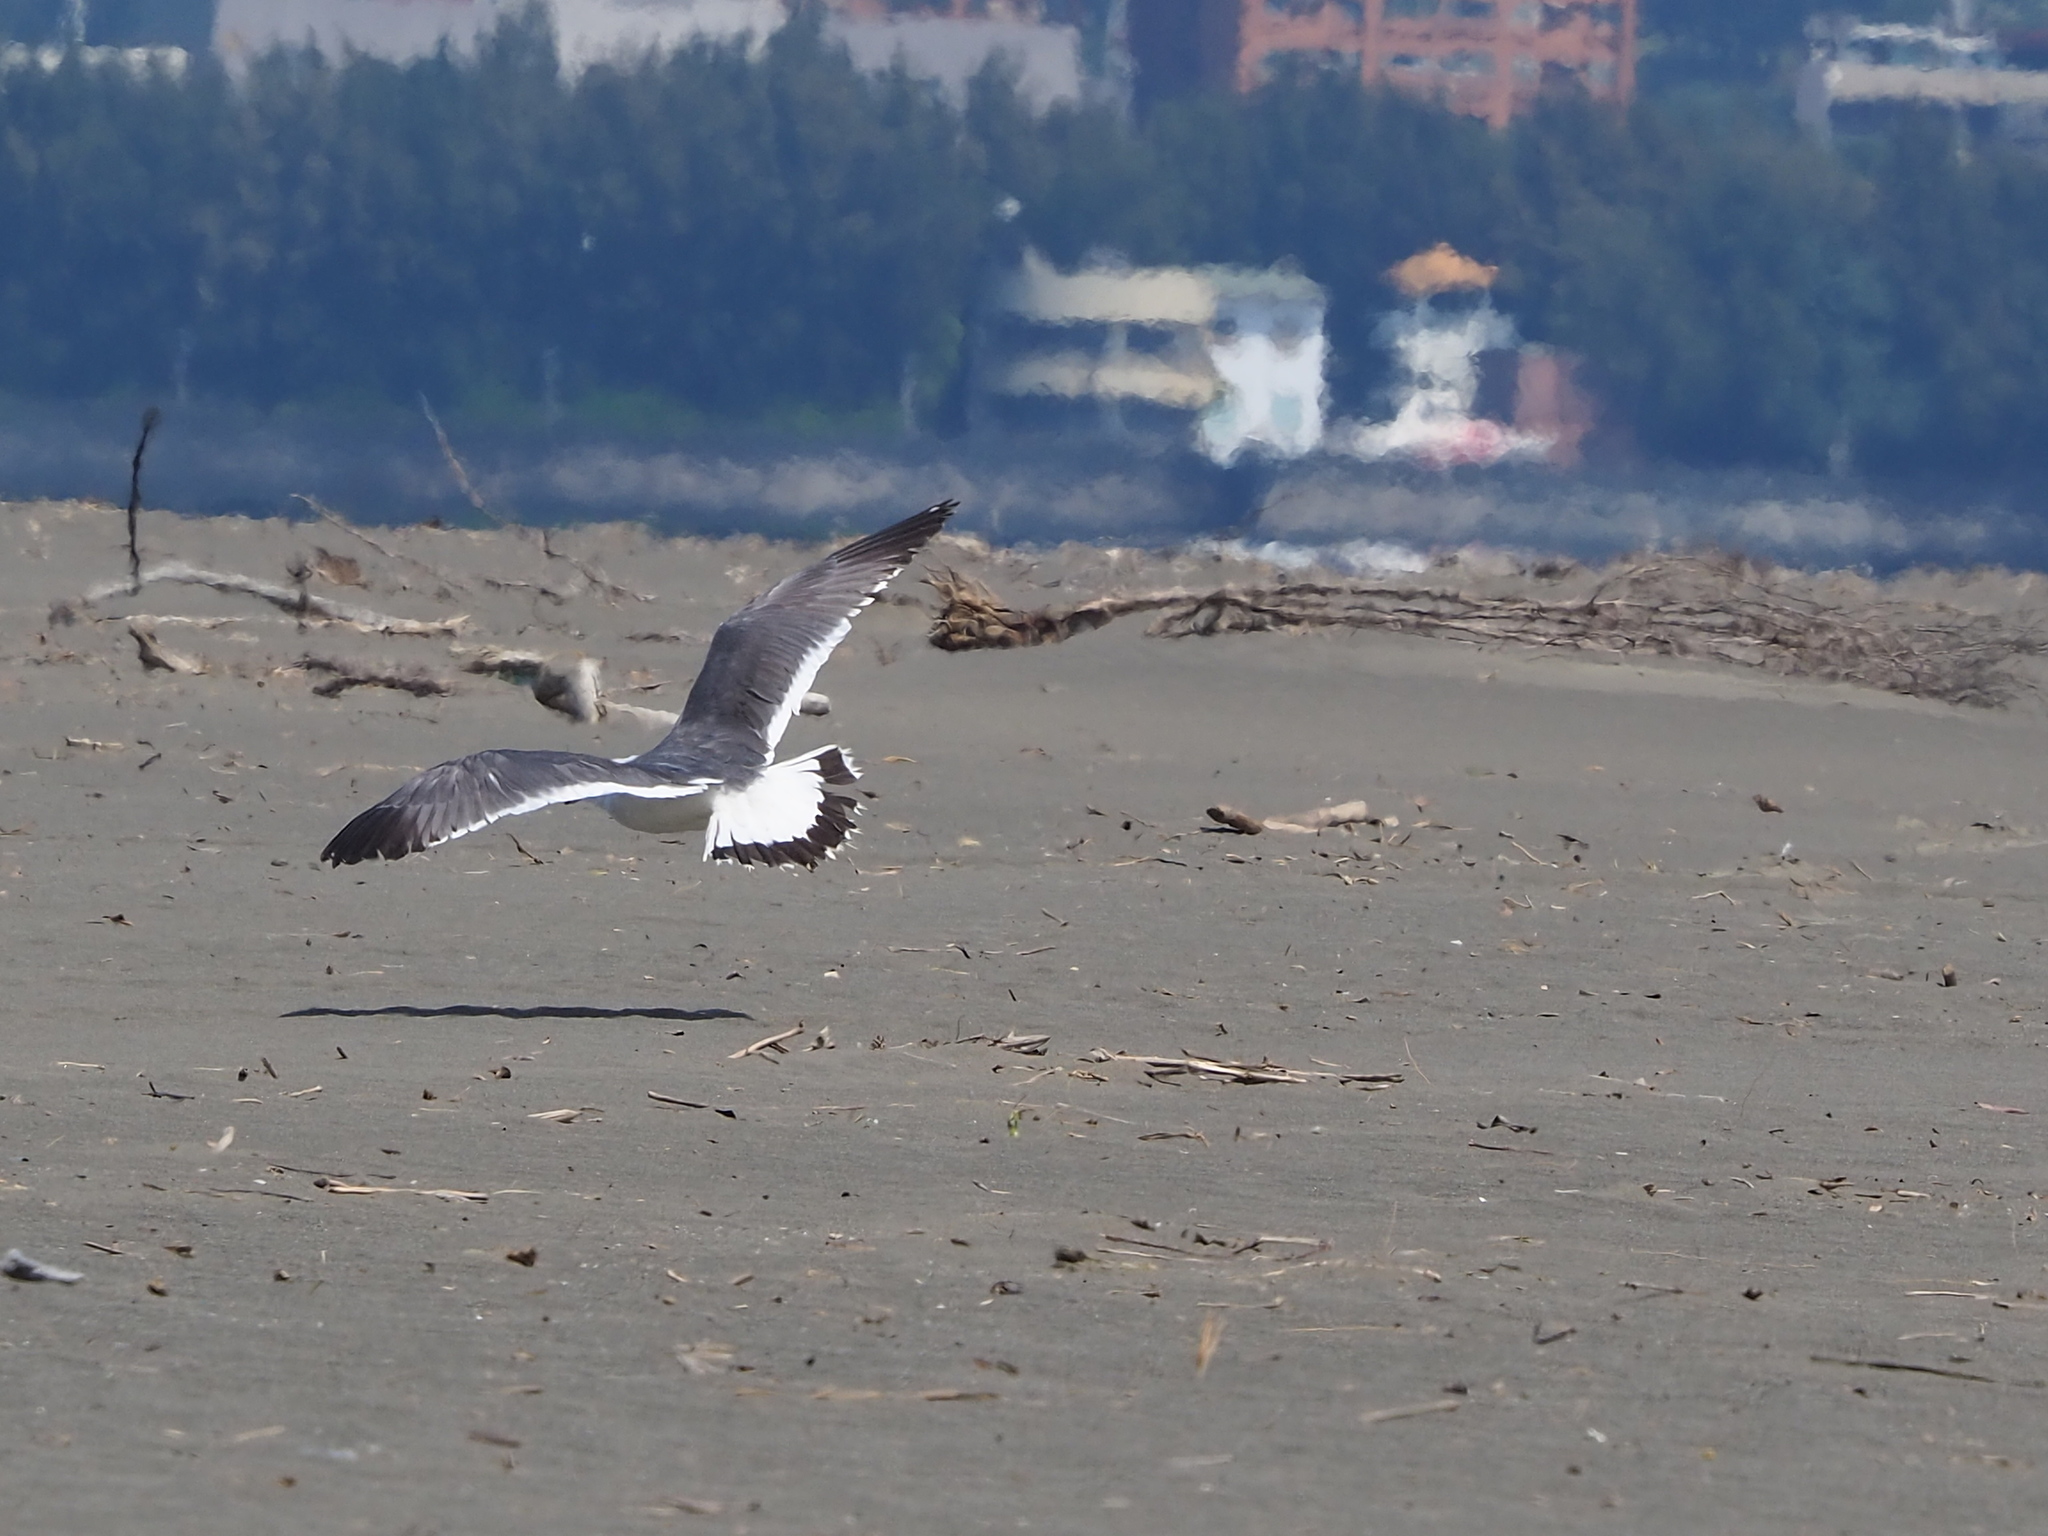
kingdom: Animalia
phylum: Chordata
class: Aves
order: Charadriiformes
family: Laridae
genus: Larus
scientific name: Larus crassirostris
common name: Black-tailed gull
